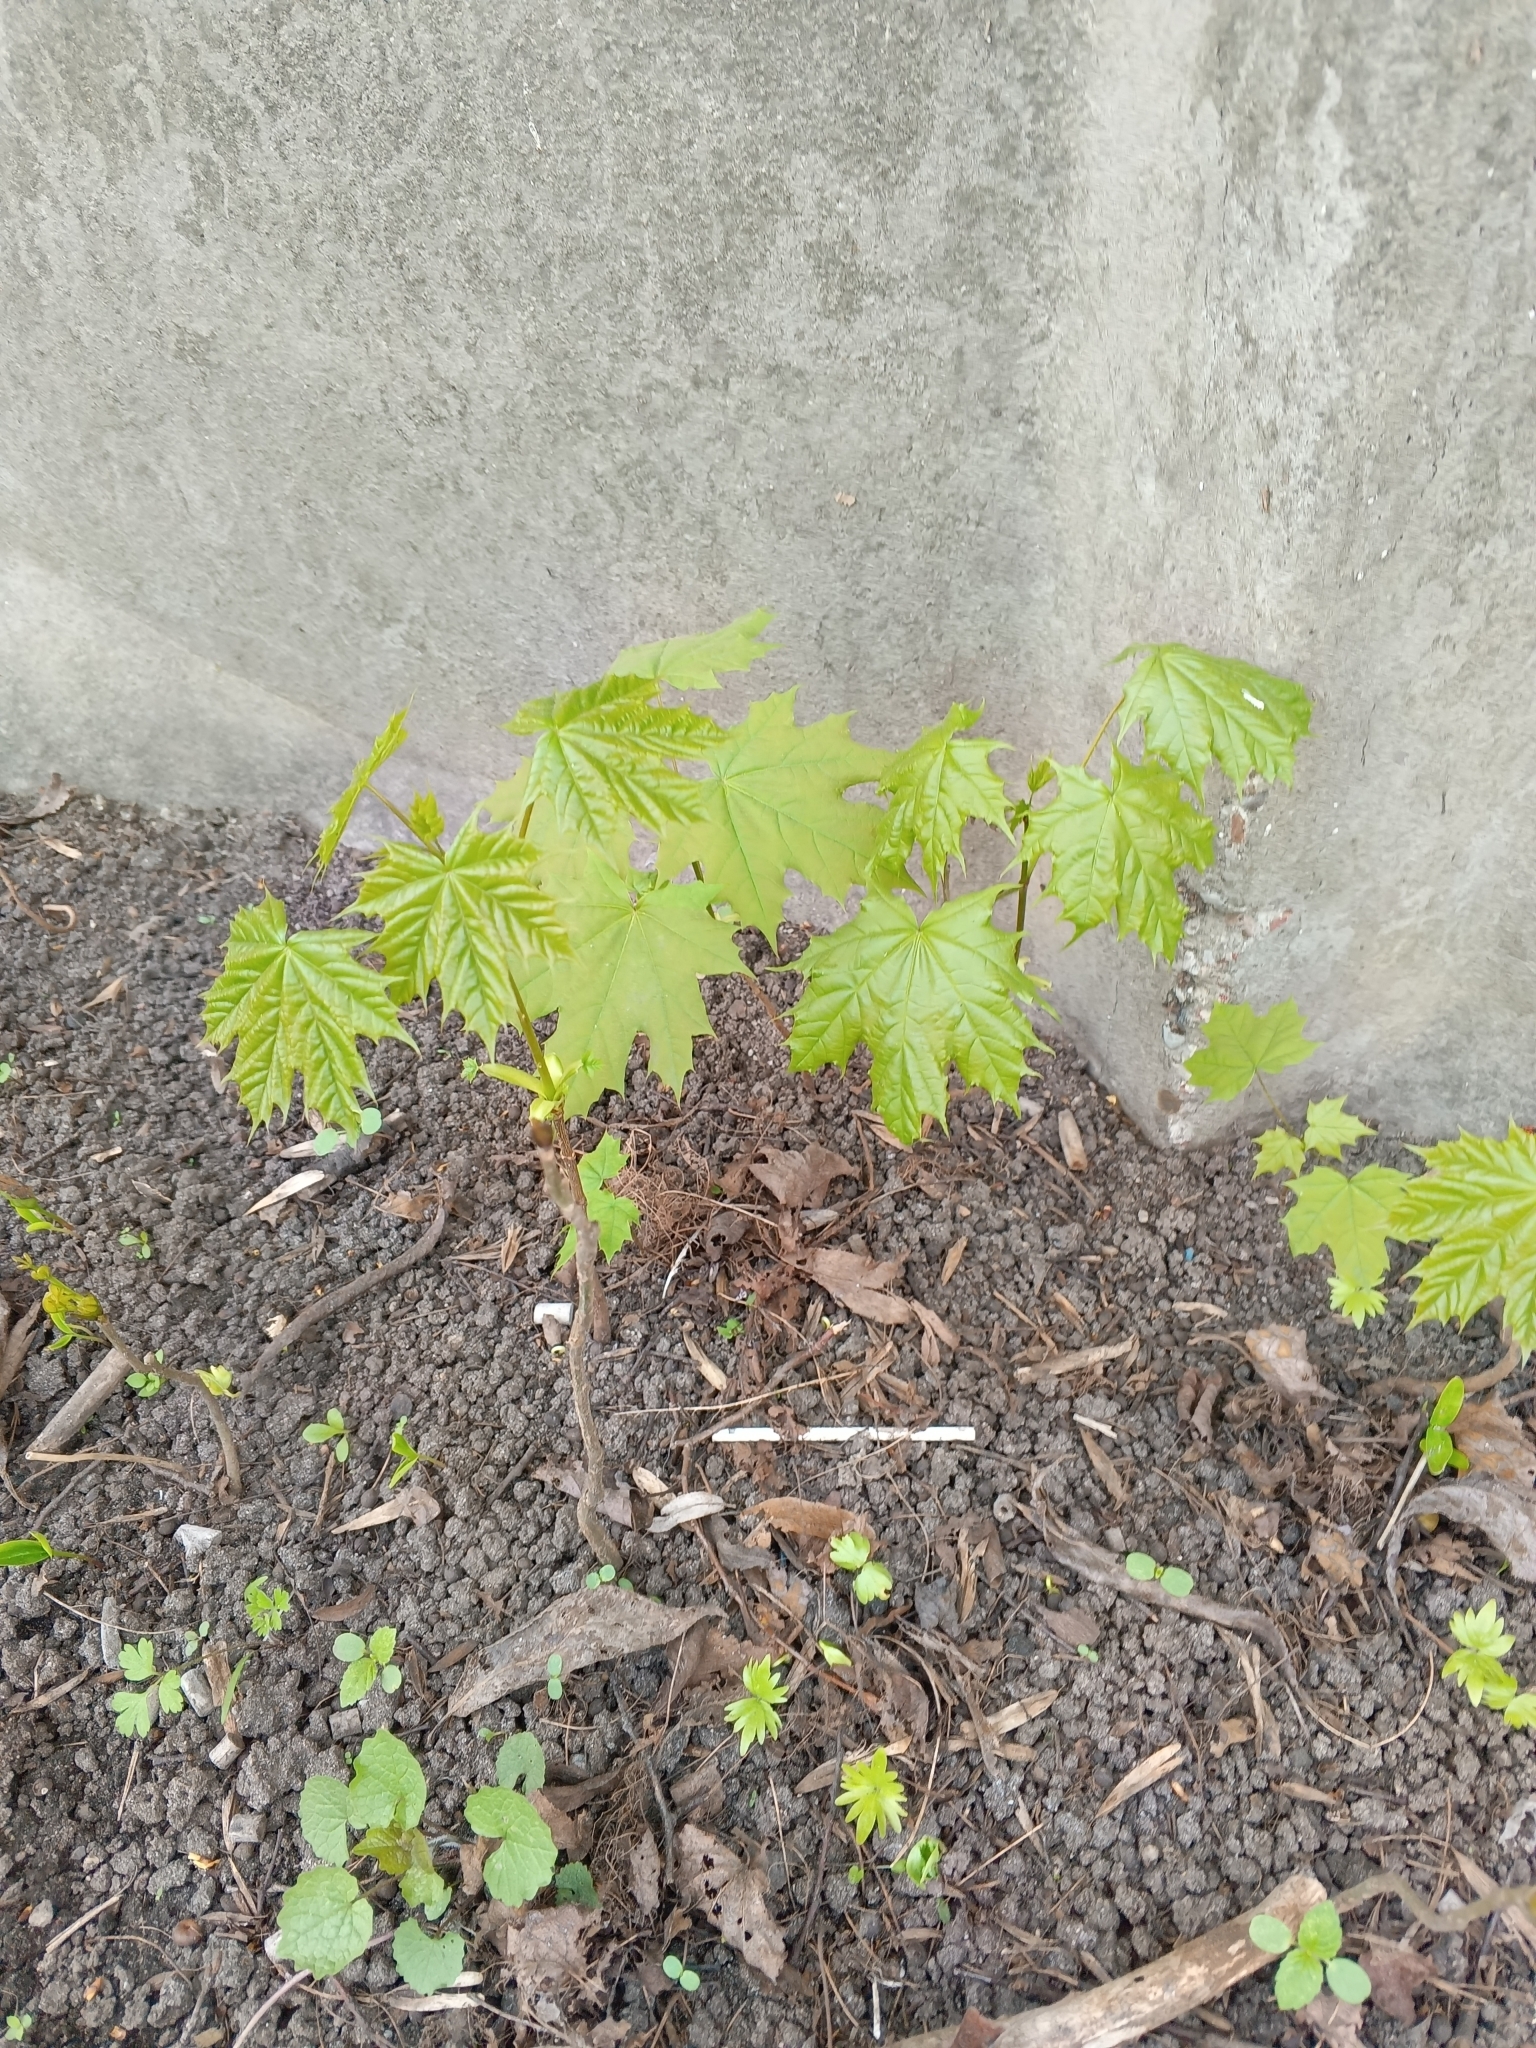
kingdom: Plantae
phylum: Tracheophyta
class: Magnoliopsida
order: Sapindales
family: Sapindaceae
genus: Acer
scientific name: Acer platanoides
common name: Norway maple
